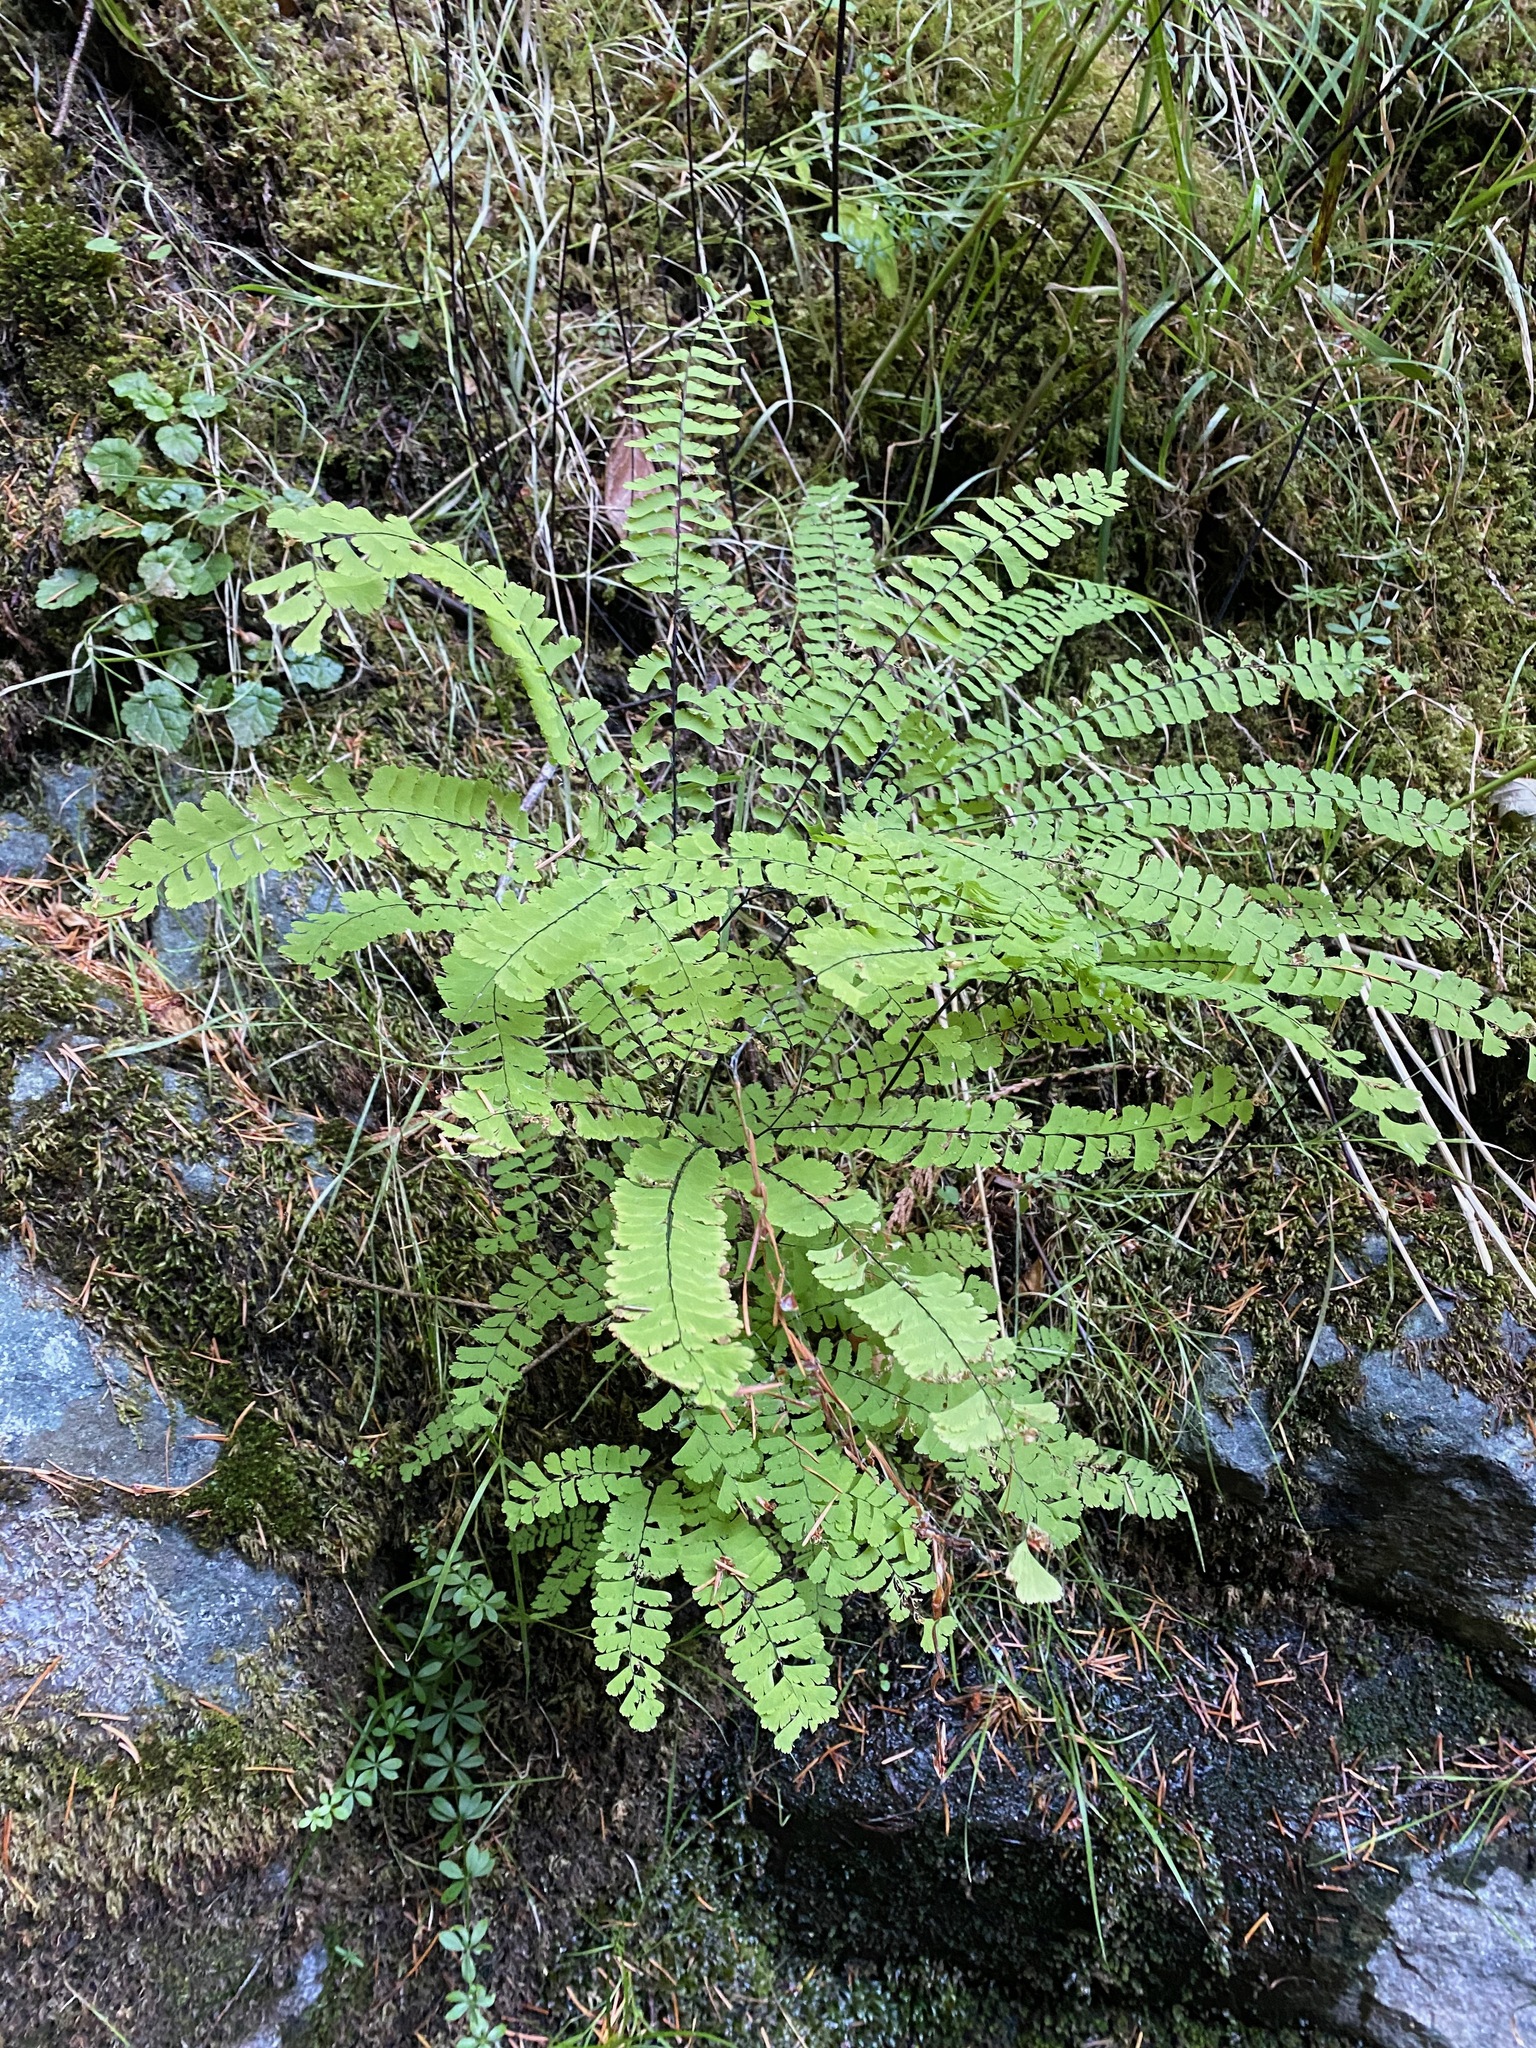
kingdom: Plantae
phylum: Tracheophyta
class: Polypodiopsida
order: Polypodiales
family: Pteridaceae
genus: Adiantum
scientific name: Adiantum aleuticum
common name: Aleutian maidenhair fern
